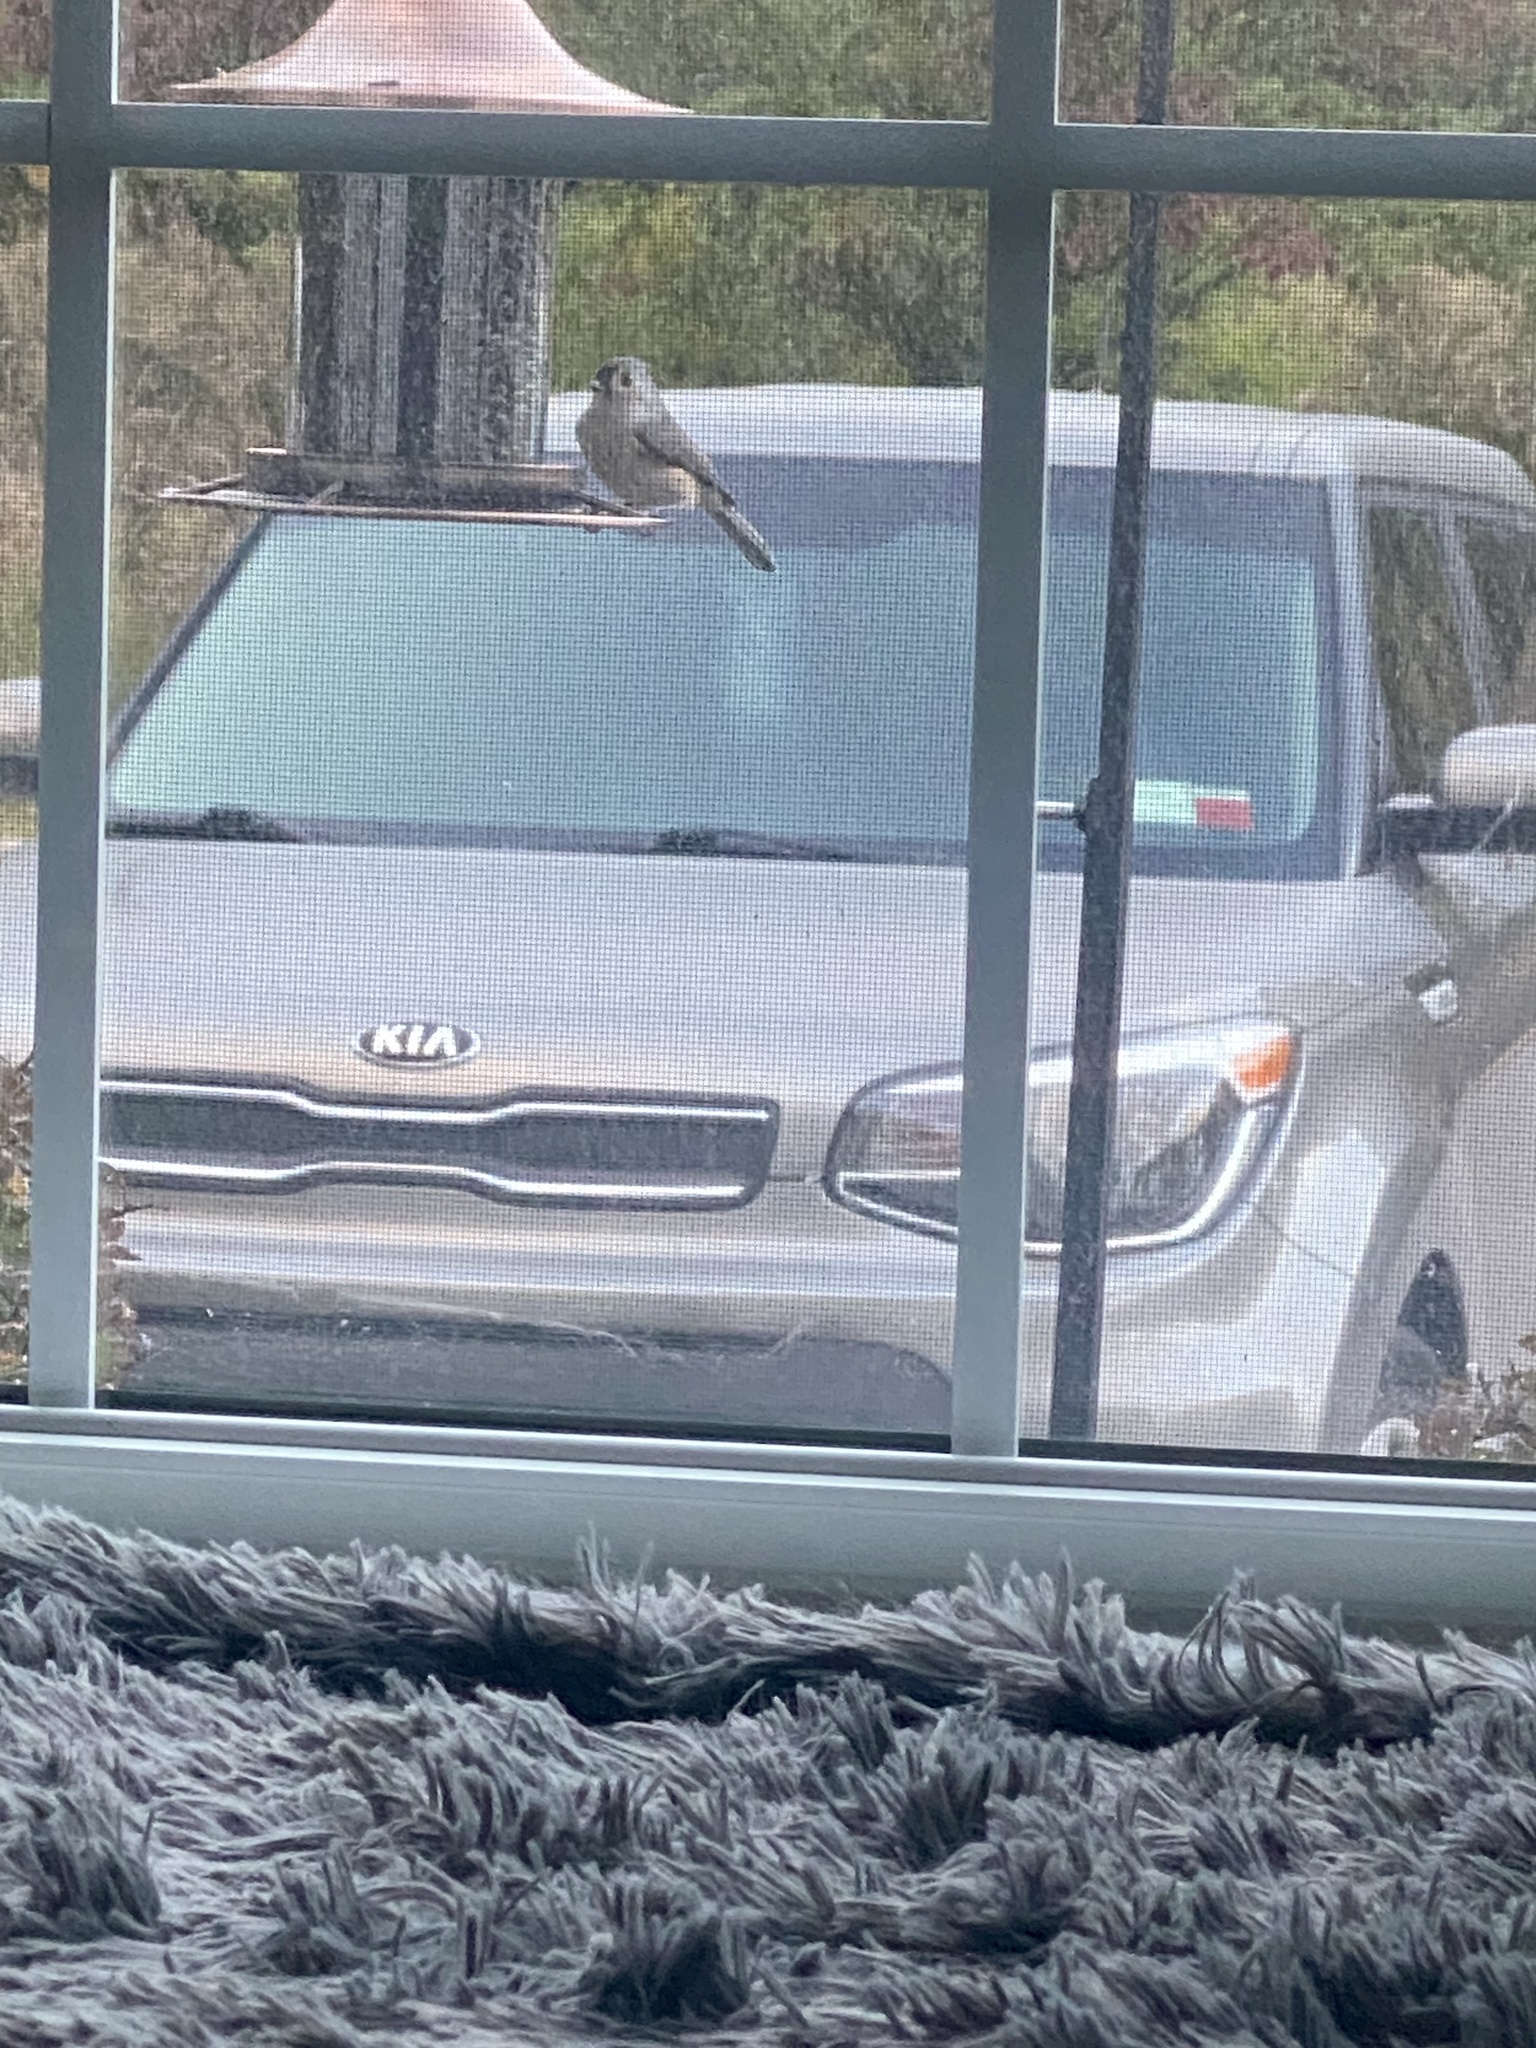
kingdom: Animalia
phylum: Chordata
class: Aves
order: Passeriformes
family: Paridae
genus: Baeolophus
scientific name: Baeolophus bicolor
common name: Tufted titmouse
